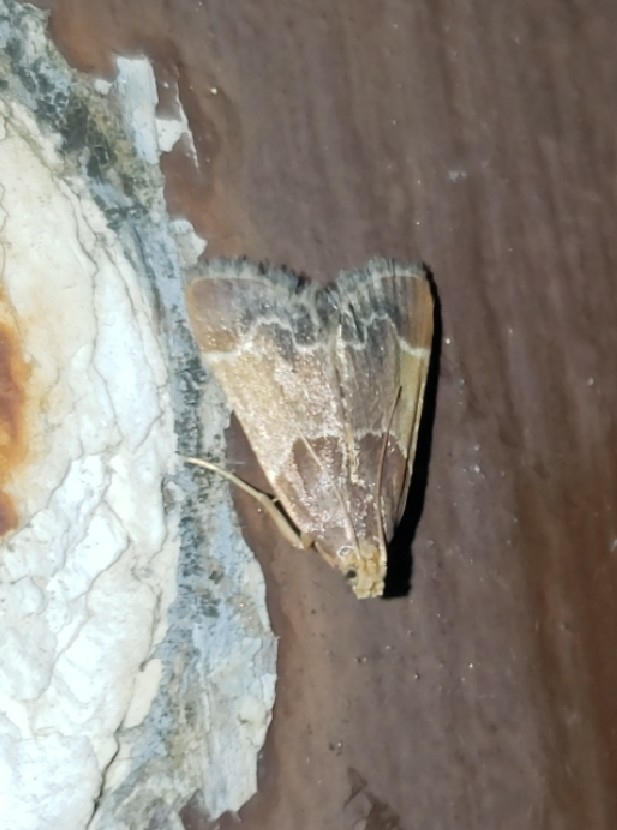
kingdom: Animalia
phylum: Arthropoda
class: Insecta
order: Lepidoptera
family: Pyralidae
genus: Pyralis
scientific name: Pyralis farinalis
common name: Meal moth
